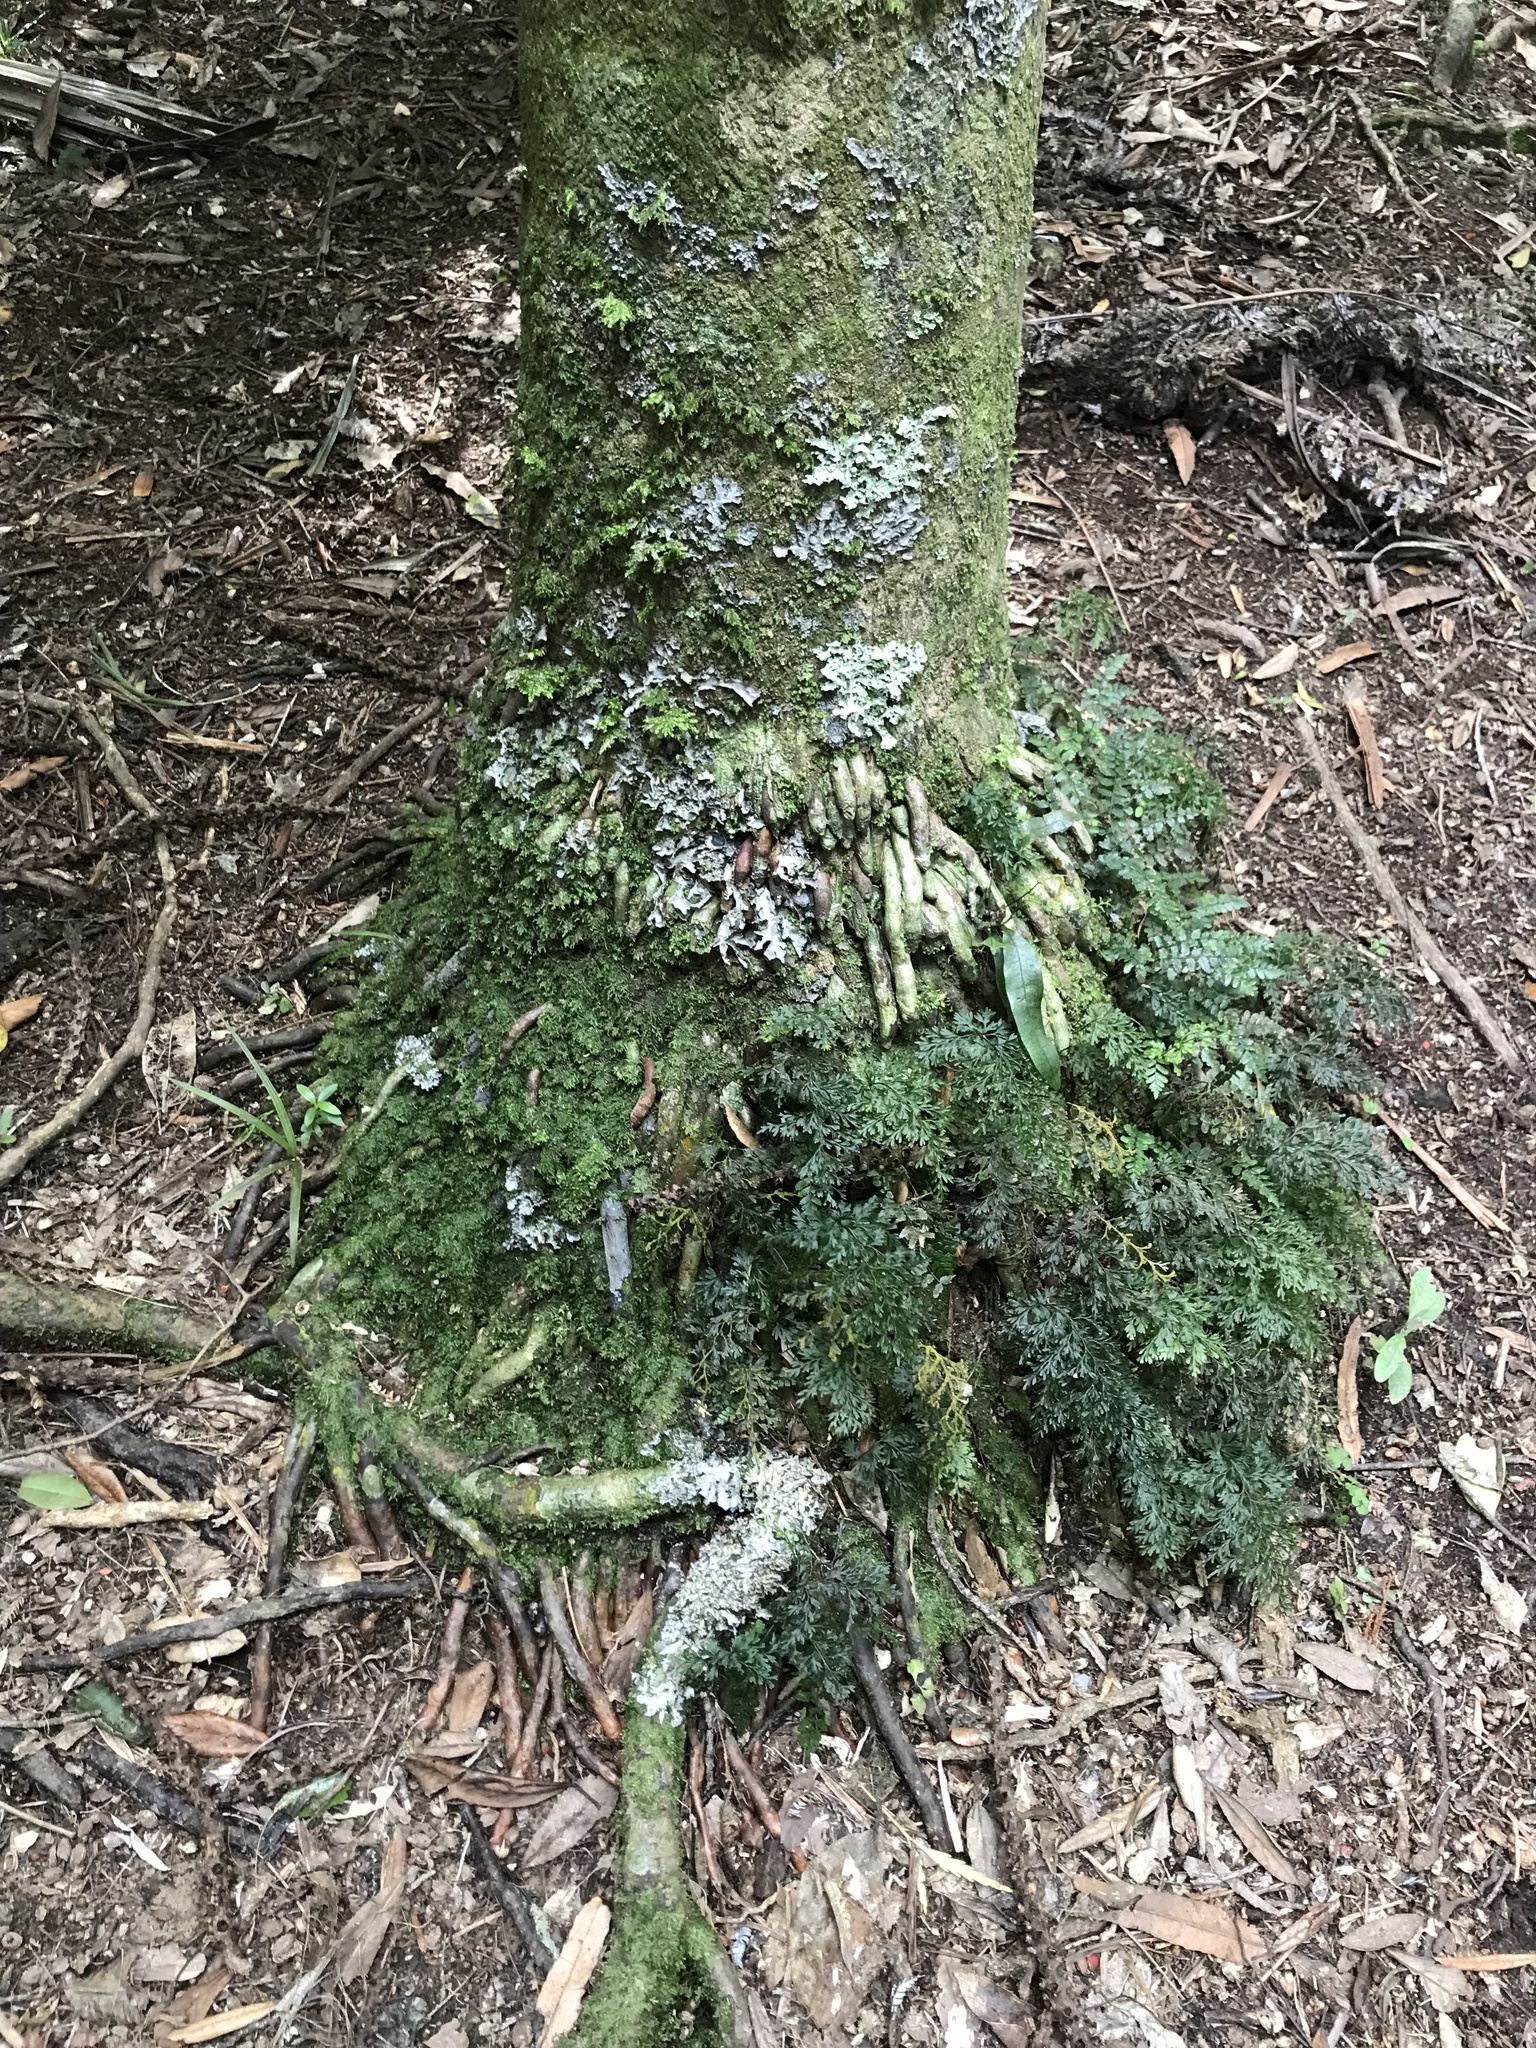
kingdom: Plantae
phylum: Tracheophyta
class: Liliopsida
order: Arecales
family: Arecaceae
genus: Rhopalostylis
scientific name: Rhopalostylis sapida
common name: Feather-duster palm
